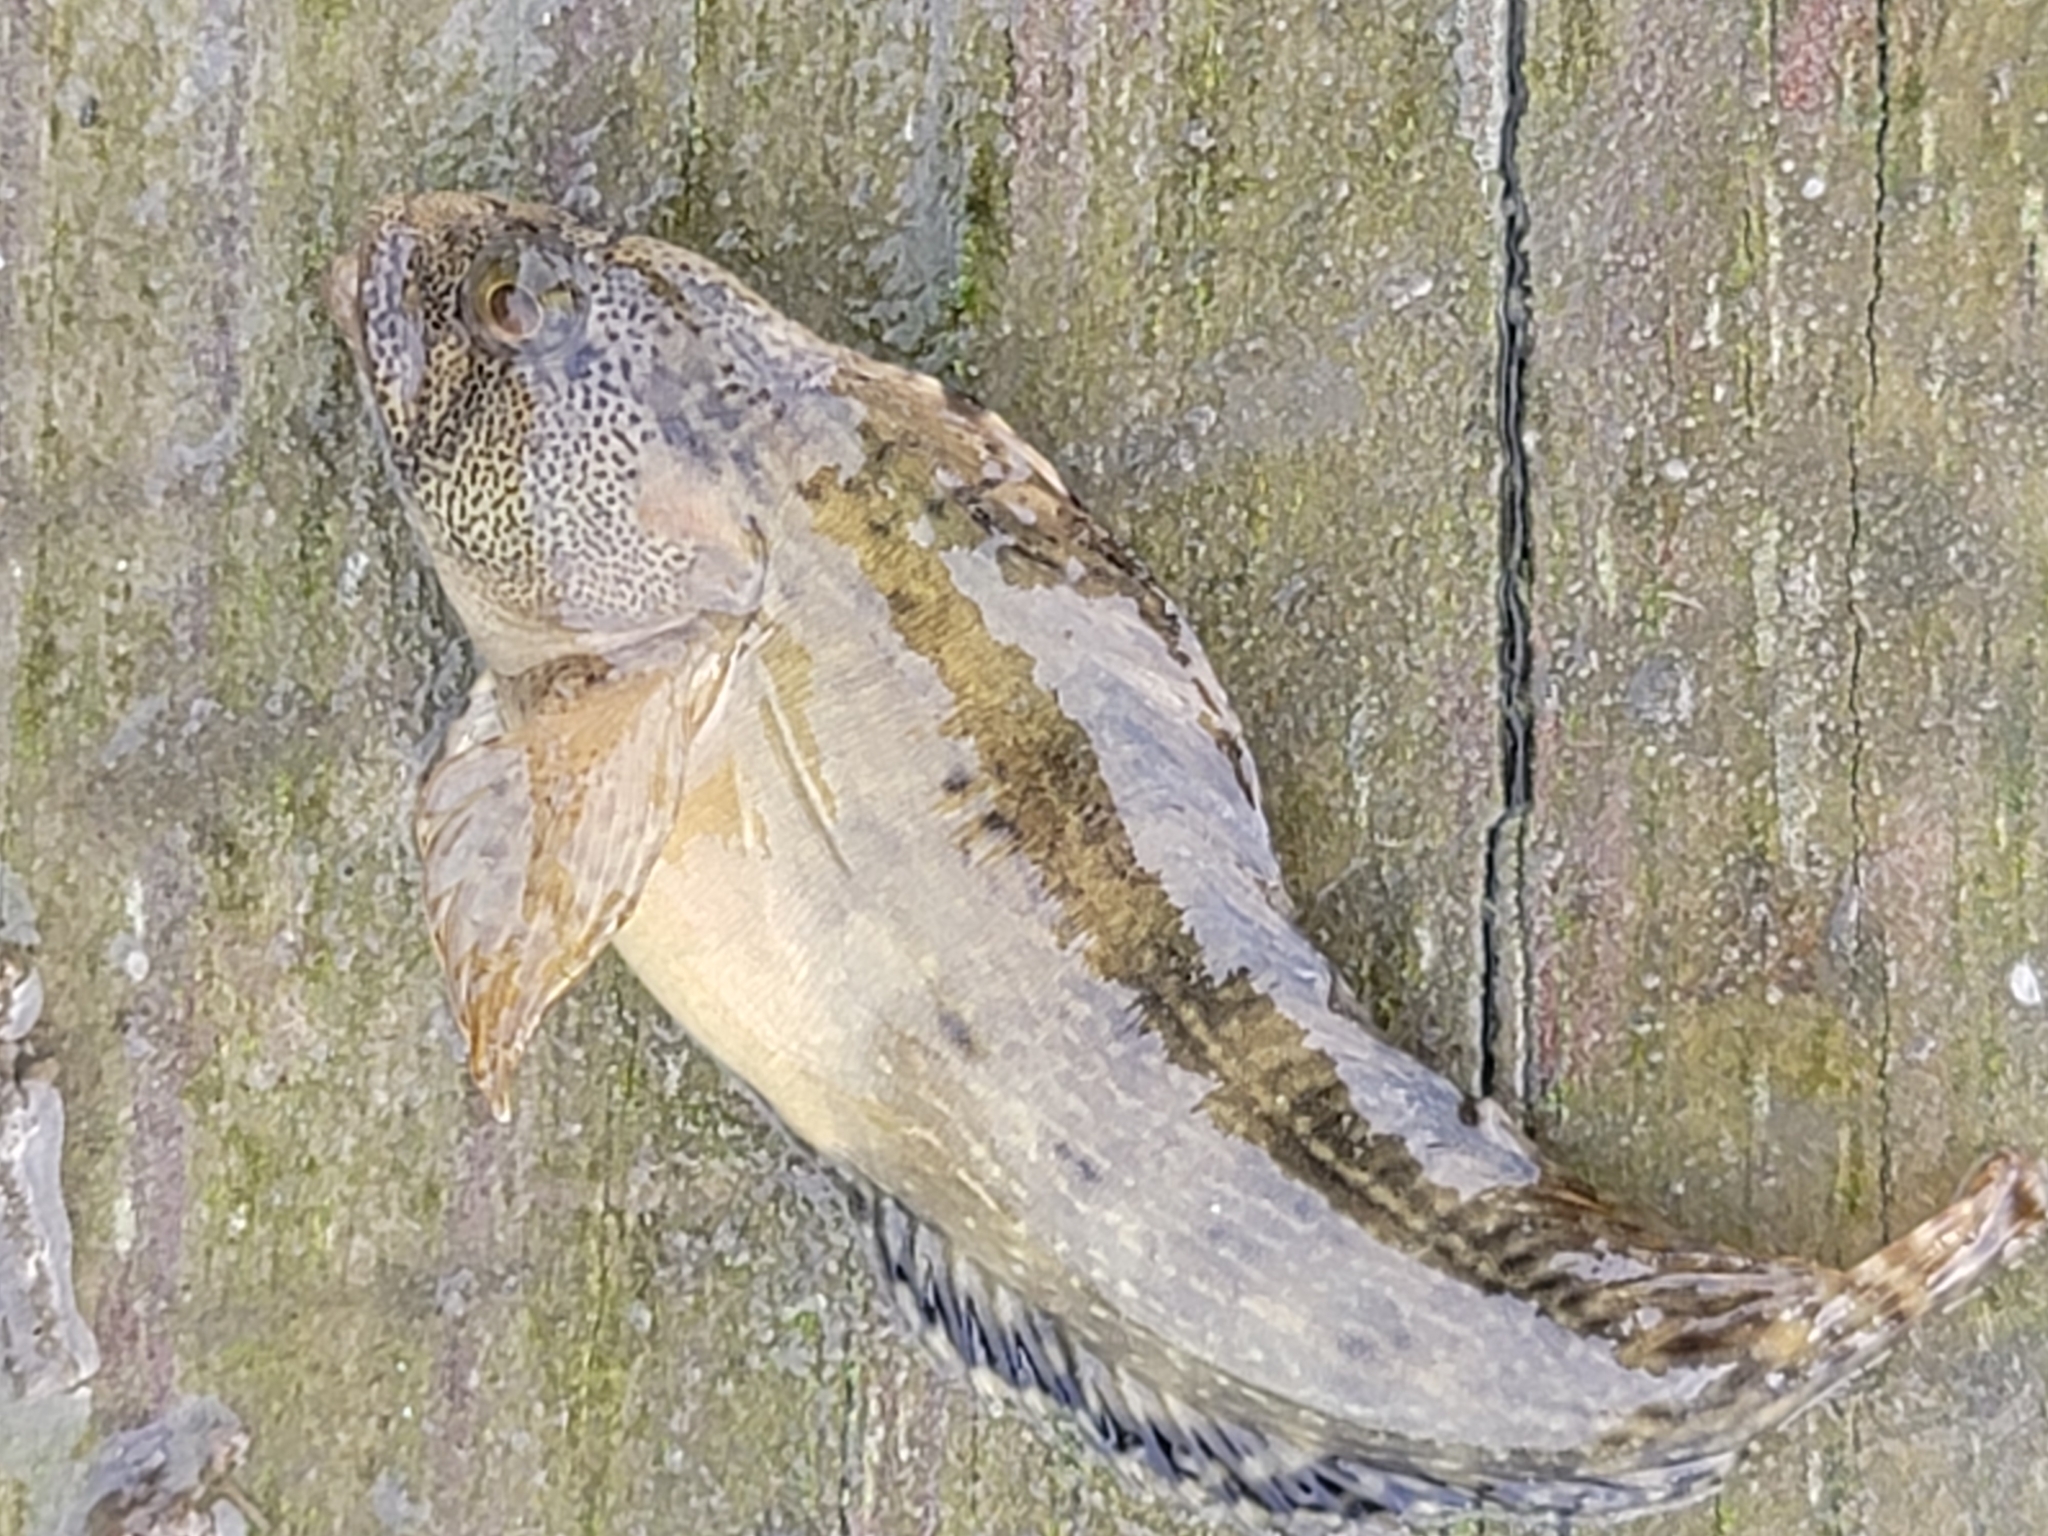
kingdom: Animalia
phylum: Chordata
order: Perciformes
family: Blenniidae
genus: Chasmodes
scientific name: Chasmodes bosquianus
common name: Striped blenny
